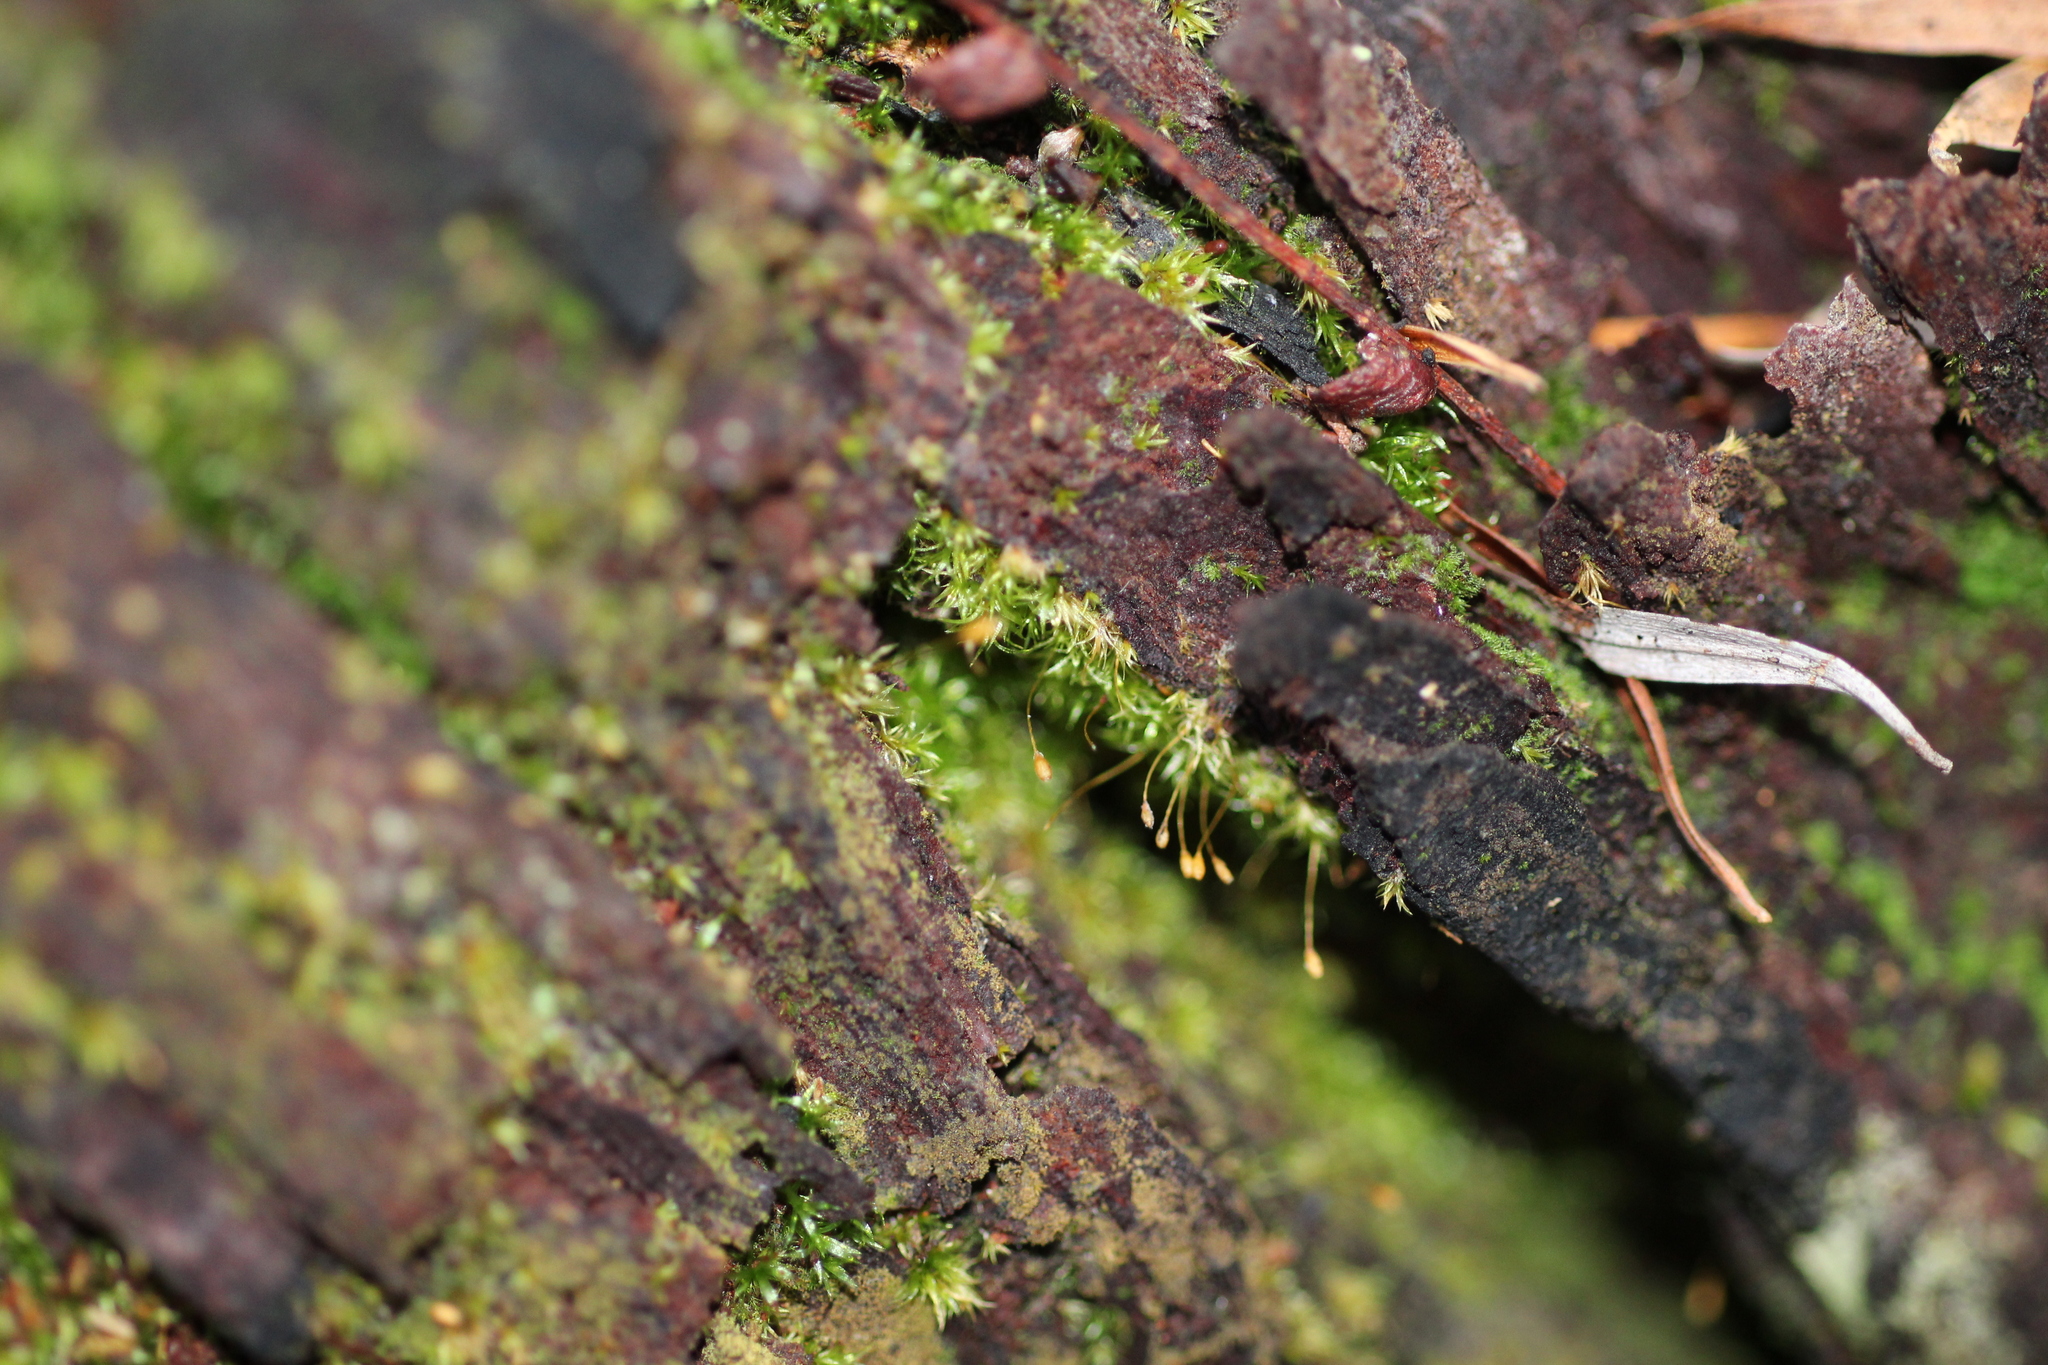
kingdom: Plantae
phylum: Bryophyta
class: Bryopsida
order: Orthodontiales
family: Orthodontiaceae
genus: Orthodontium
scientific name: Orthodontium lineare
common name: Cape thread-moss
